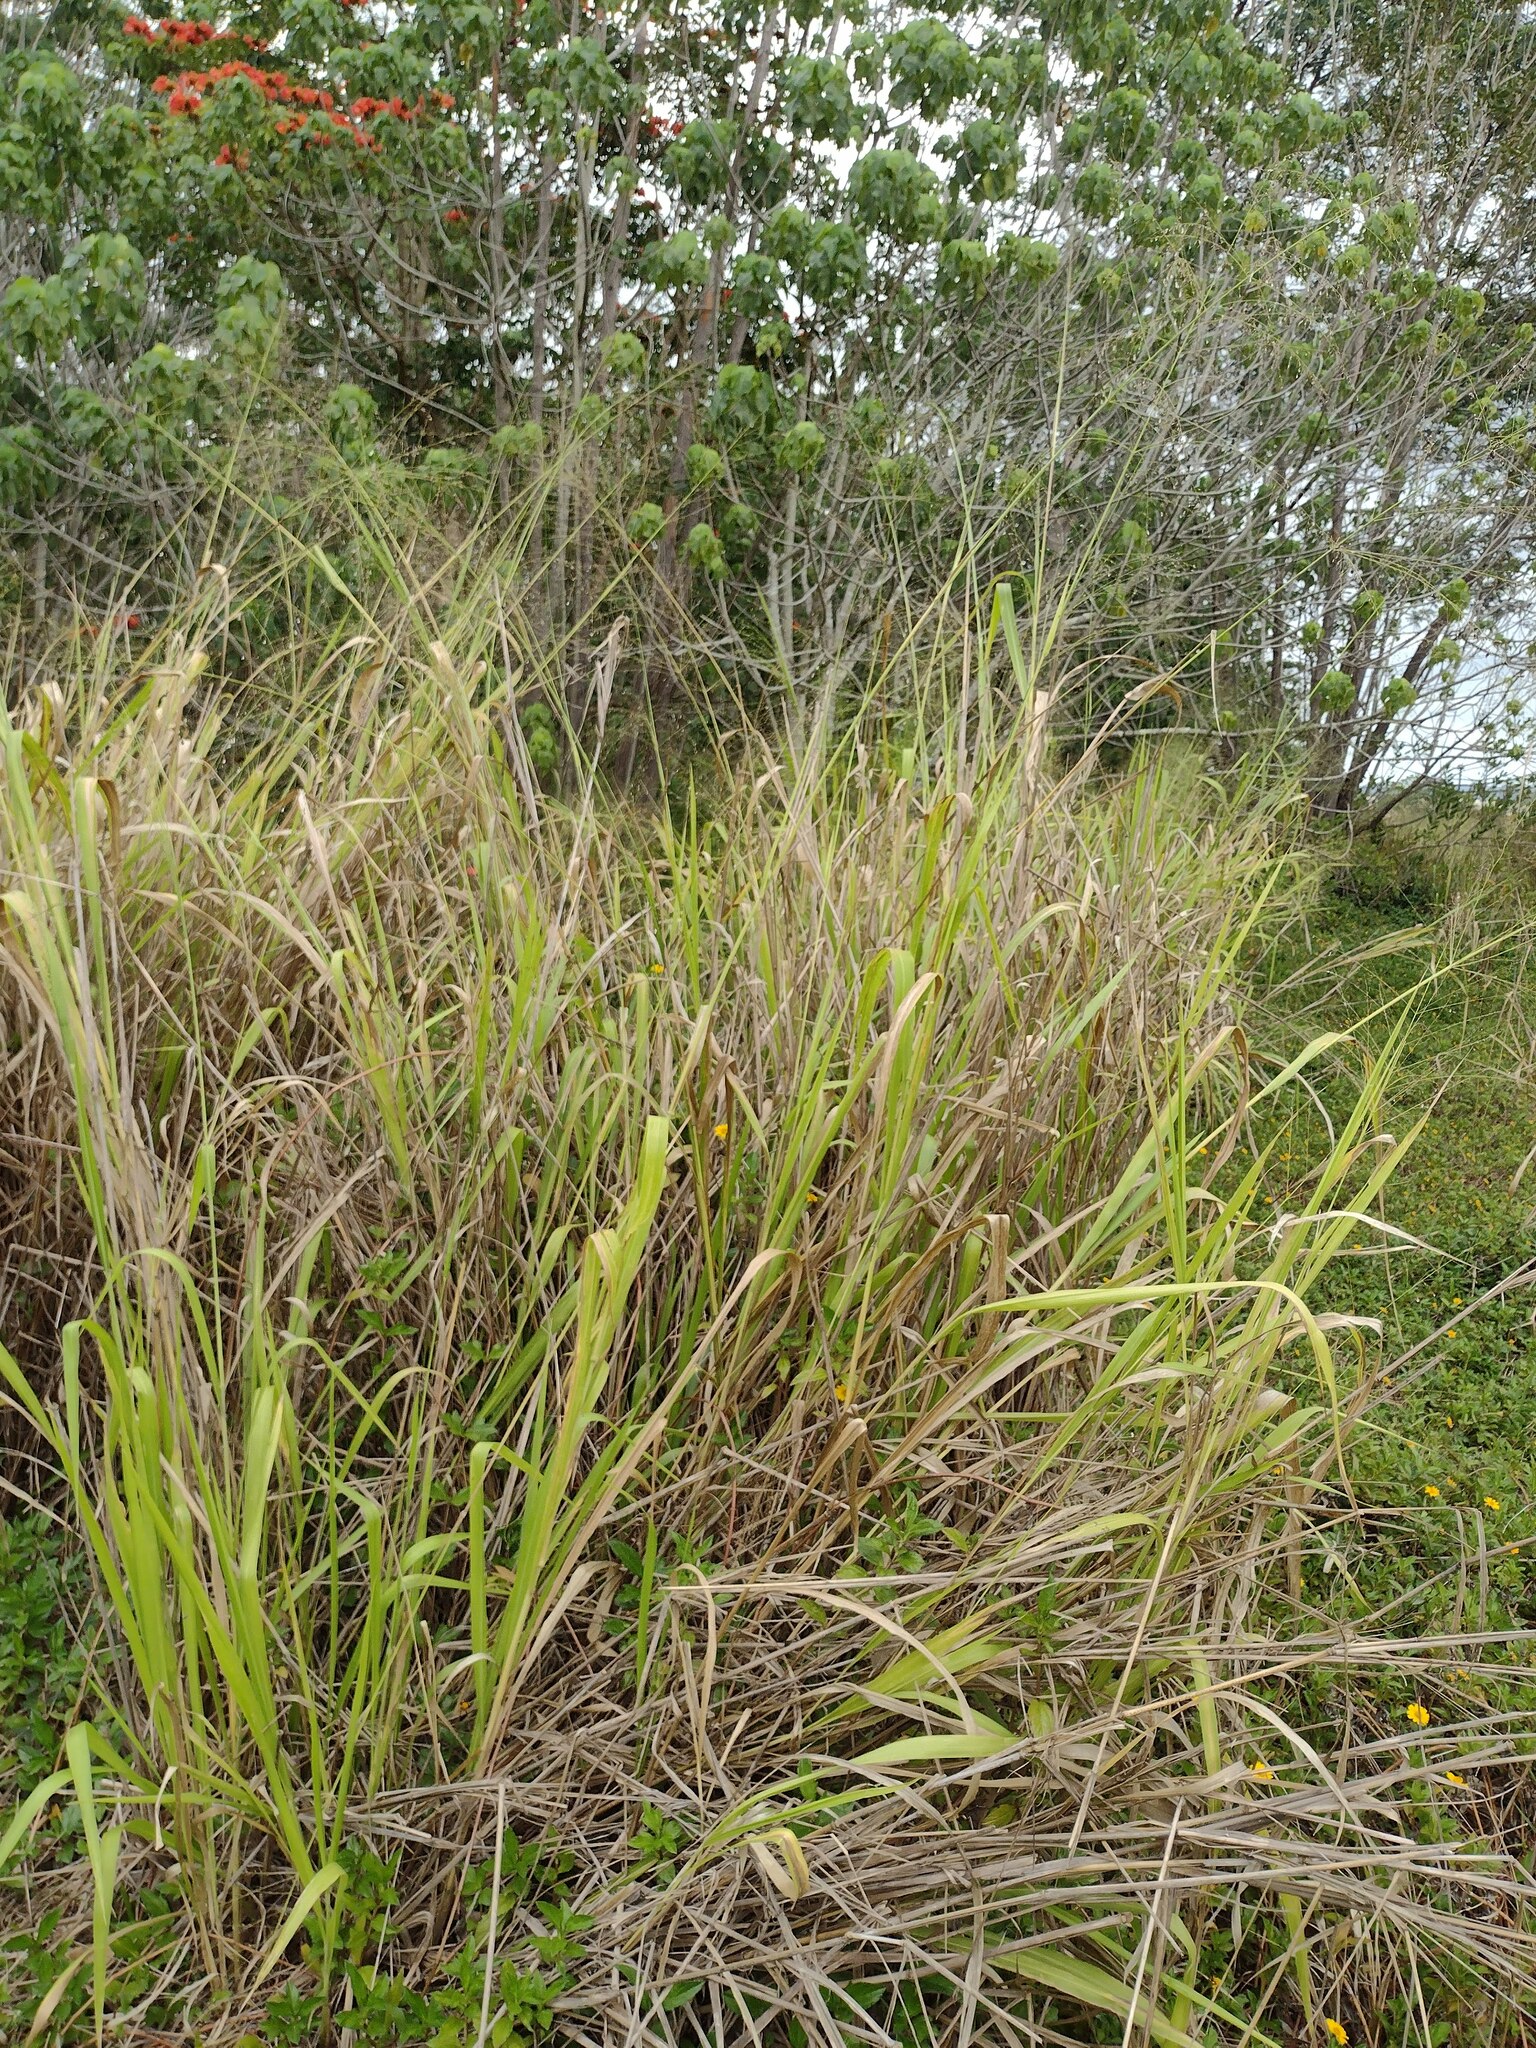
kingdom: Plantae
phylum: Tracheophyta
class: Liliopsida
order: Poales
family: Poaceae
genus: Megathyrsus
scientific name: Megathyrsus maximus
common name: Guineagrass
